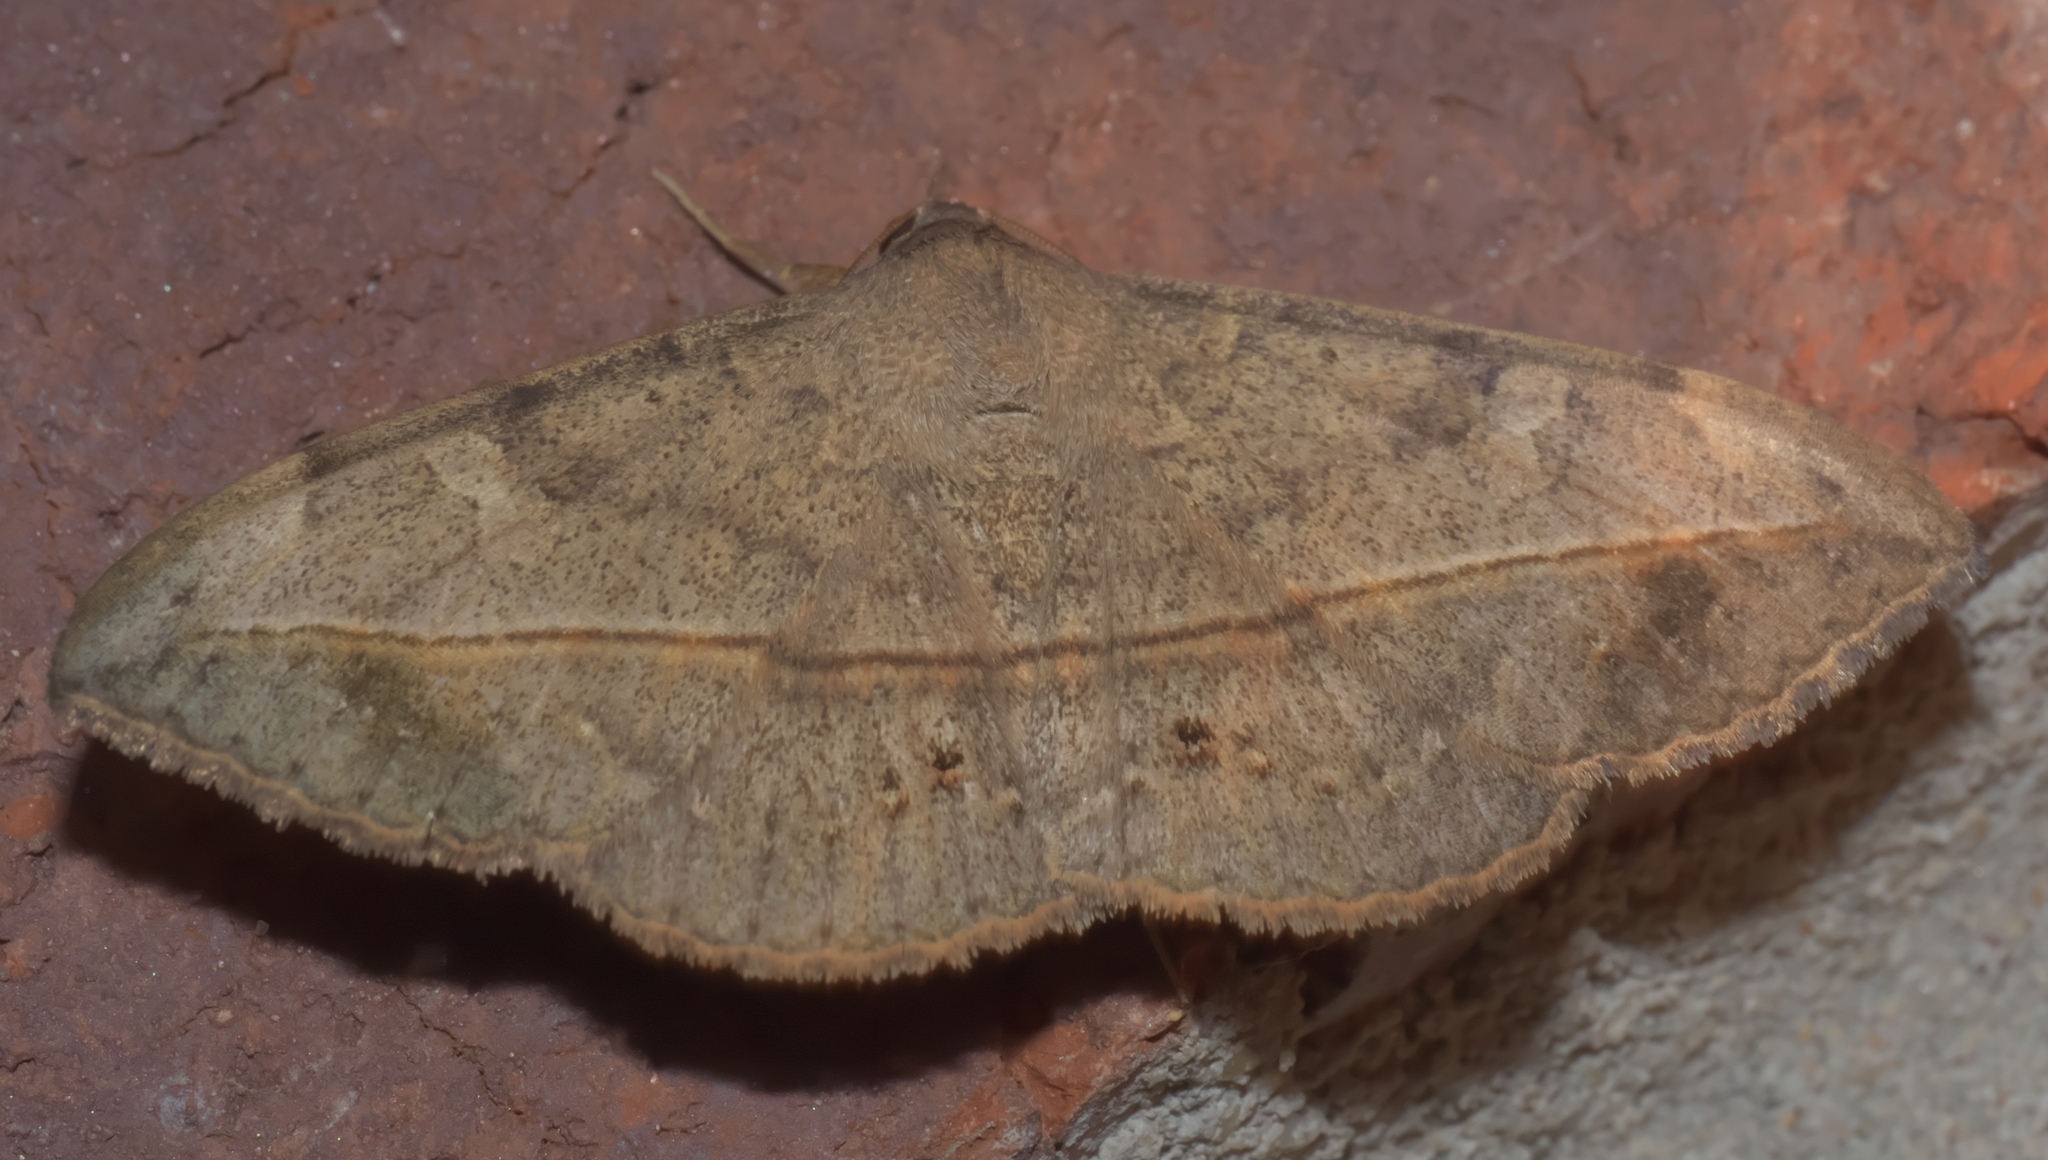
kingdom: Animalia
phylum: Arthropoda
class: Insecta
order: Lepidoptera
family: Erebidae
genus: Anticarsia
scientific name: Anticarsia gemmatalis
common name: Cutworm moth
